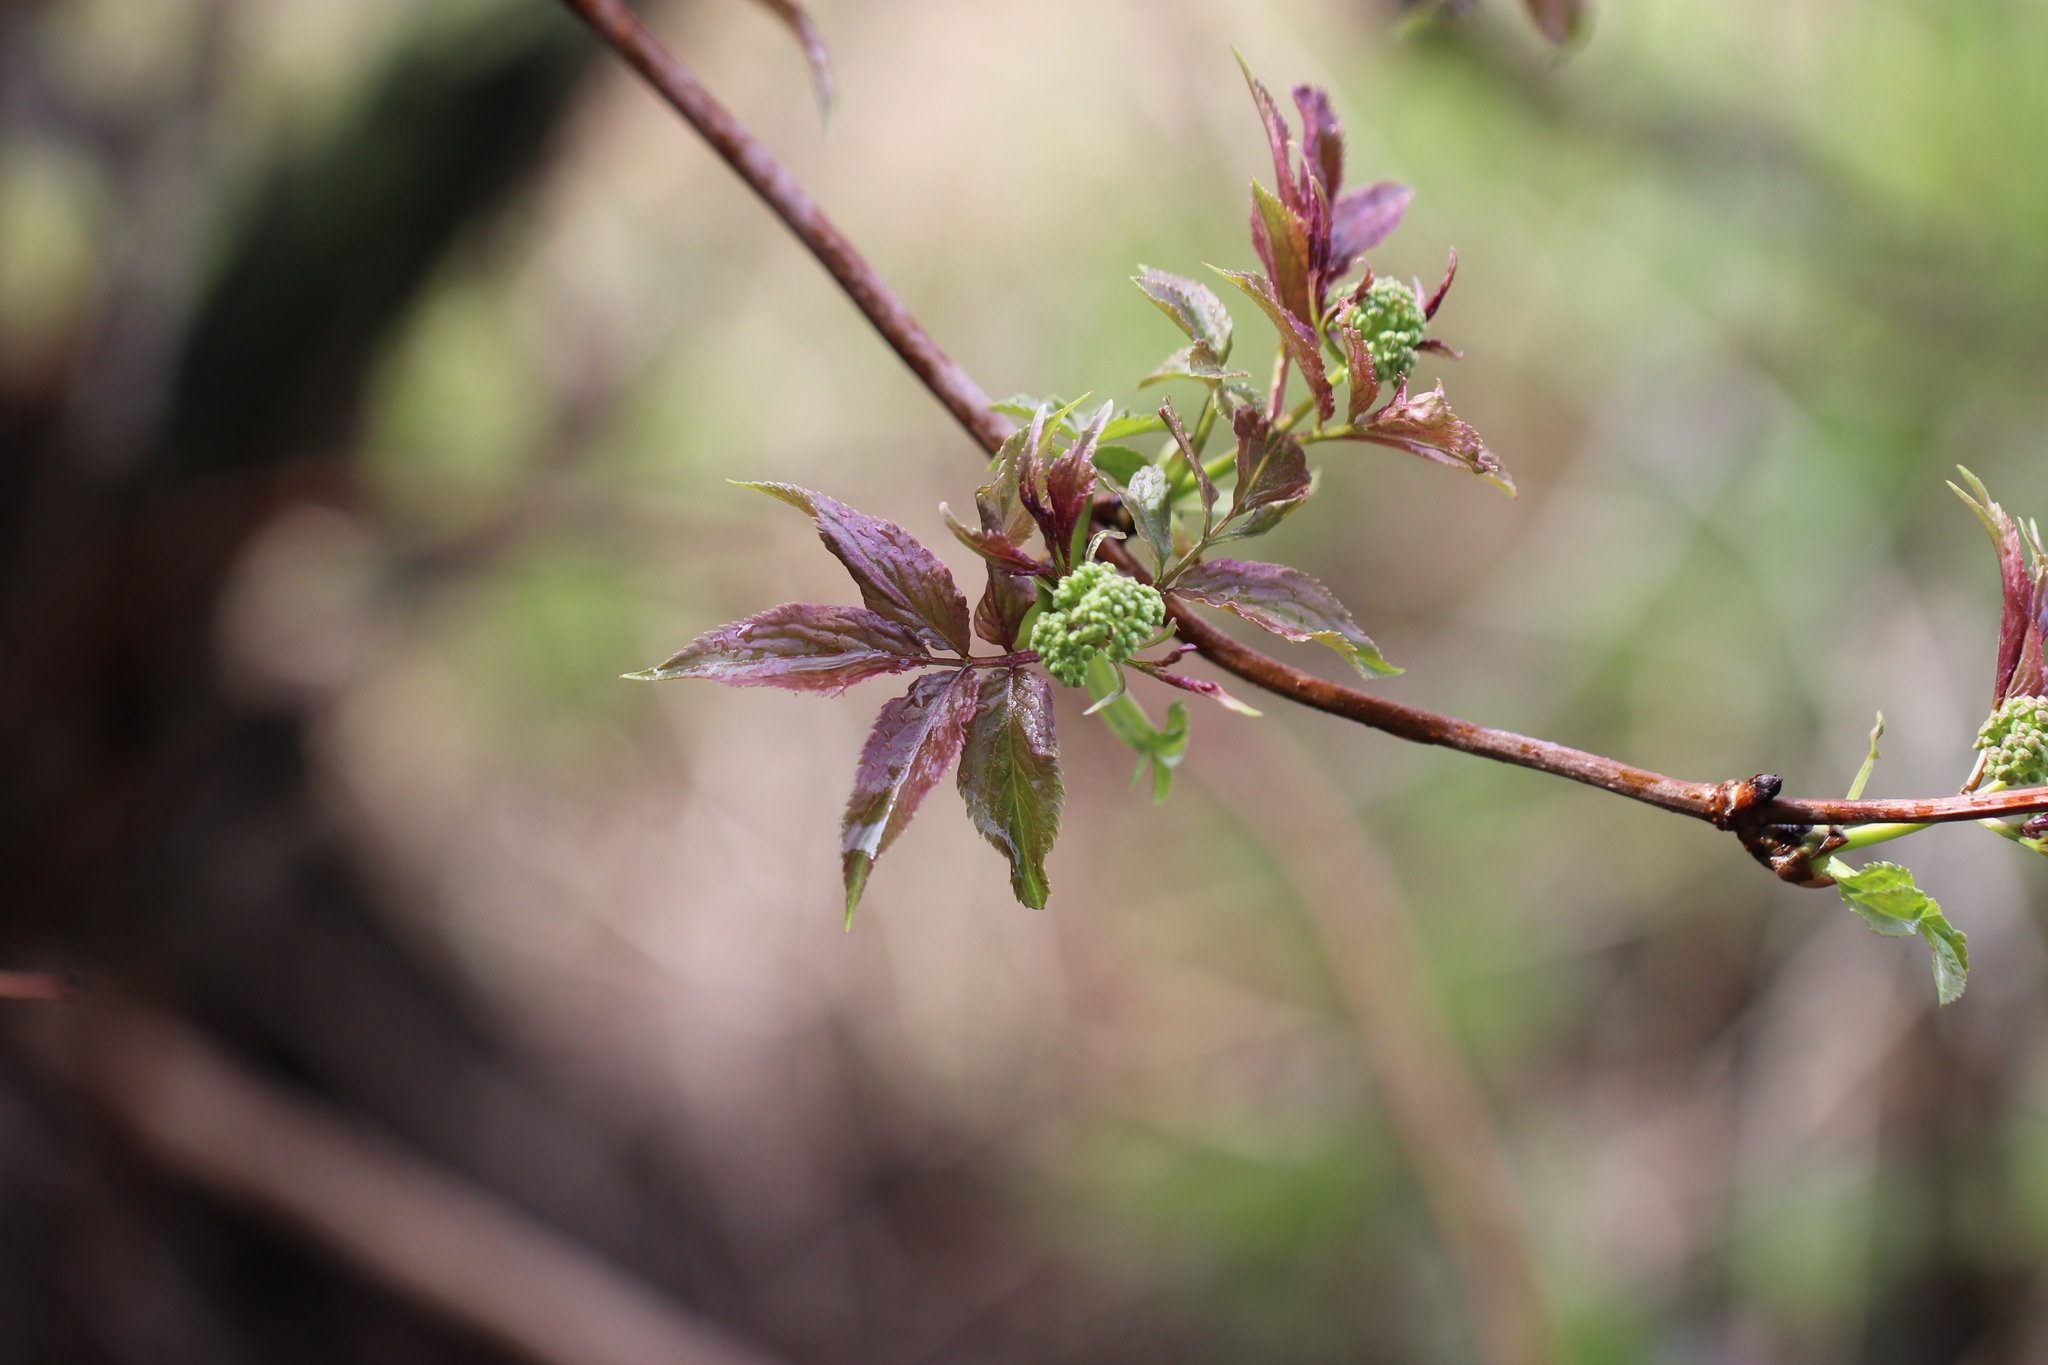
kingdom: Plantae
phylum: Tracheophyta
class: Magnoliopsida
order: Dipsacales
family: Viburnaceae
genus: Sambucus
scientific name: Sambucus racemosa
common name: Red-berried elder
